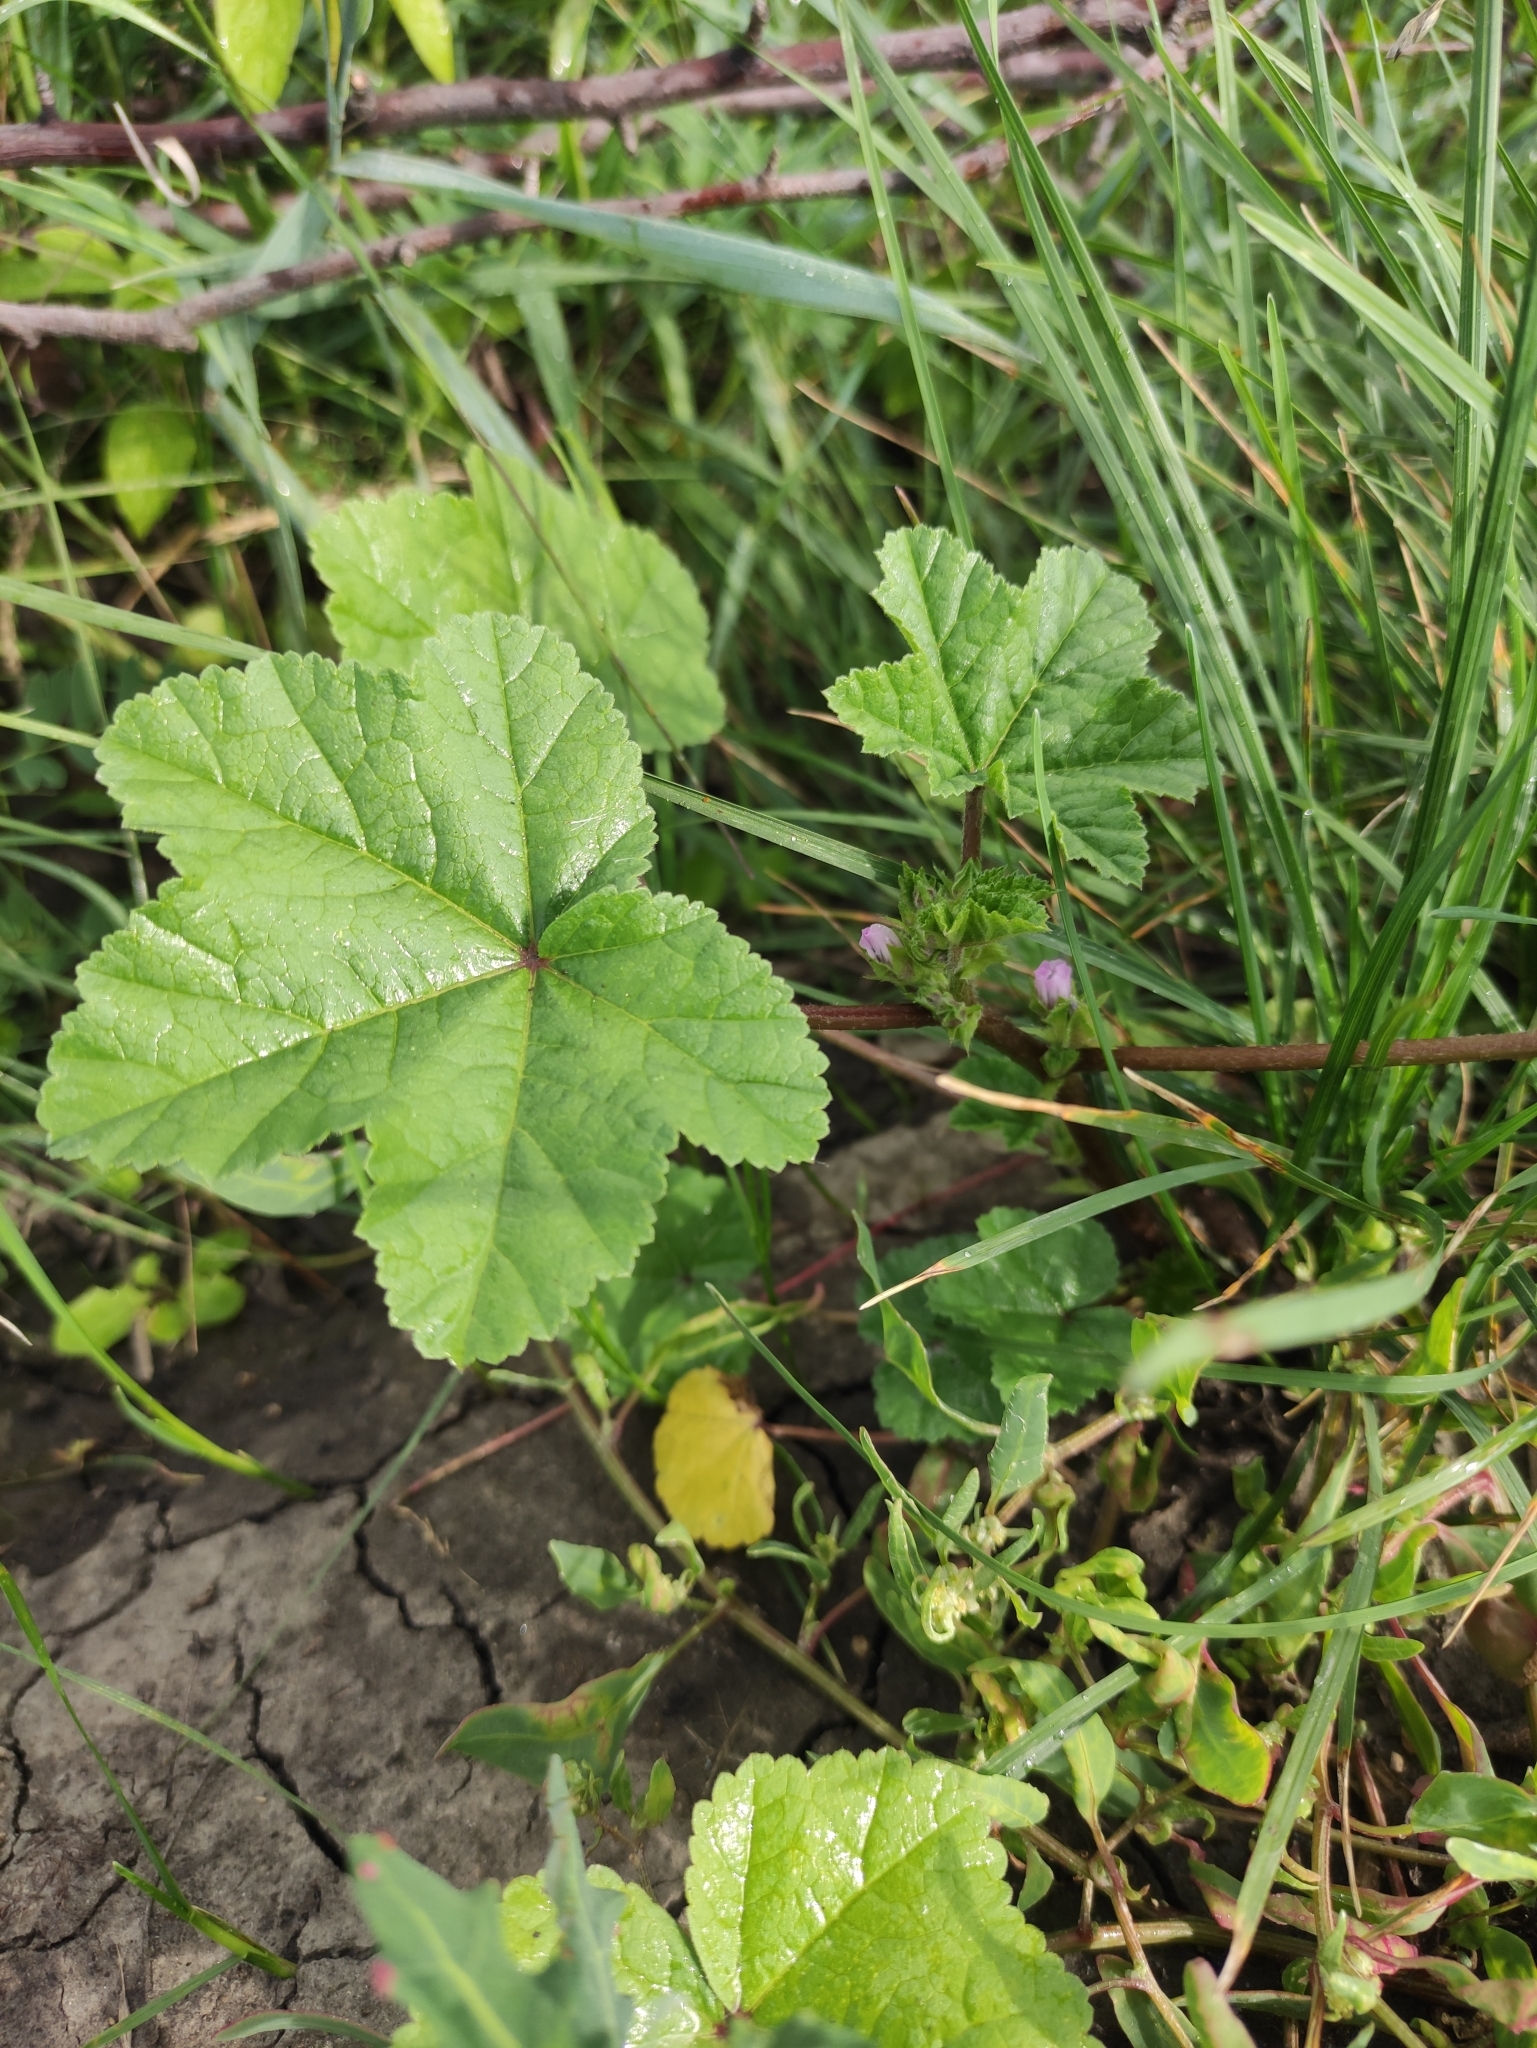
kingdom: Plantae
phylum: Tracheophyta
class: Magnoliopsida
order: Malvales
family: Malvaceae
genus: Malva
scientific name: Malva verticillata
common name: Chinese mallow
